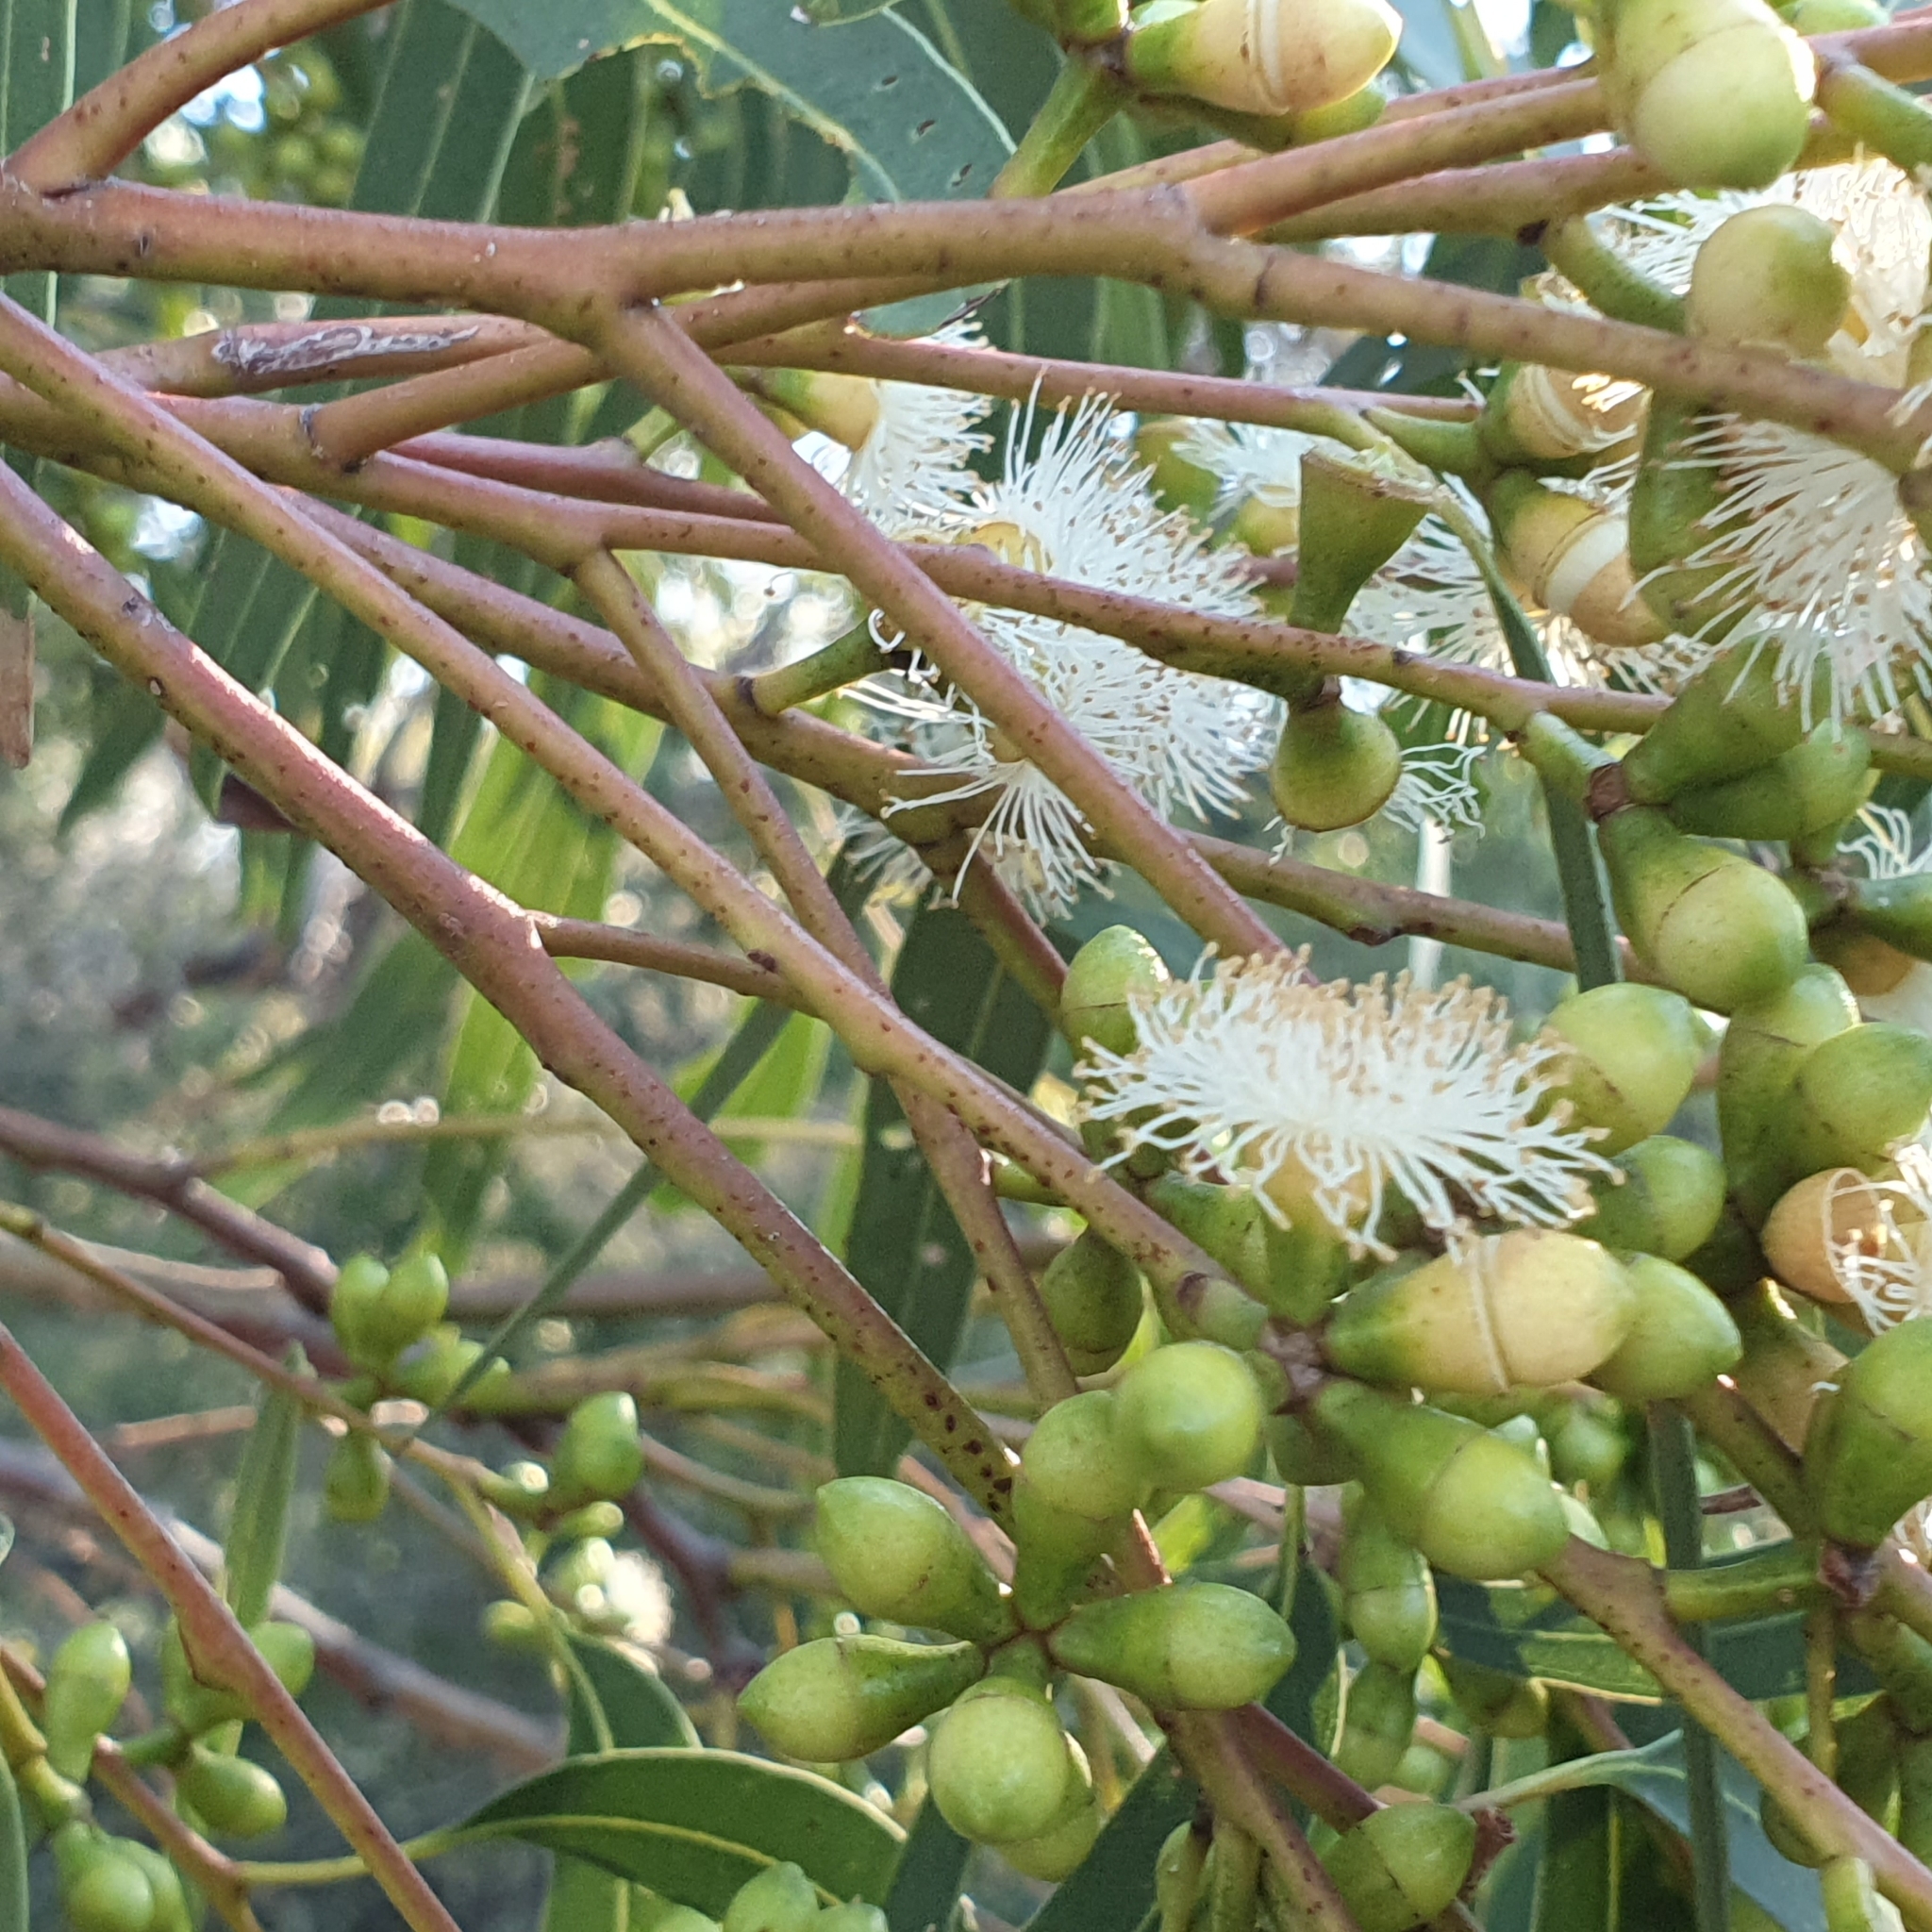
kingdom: Plantae
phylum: Tracheophyta
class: Magnoliopsida
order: Myrtales
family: Myrtaceae
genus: Eucalyptus
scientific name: Eucalyptus punctata
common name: Gray gum
